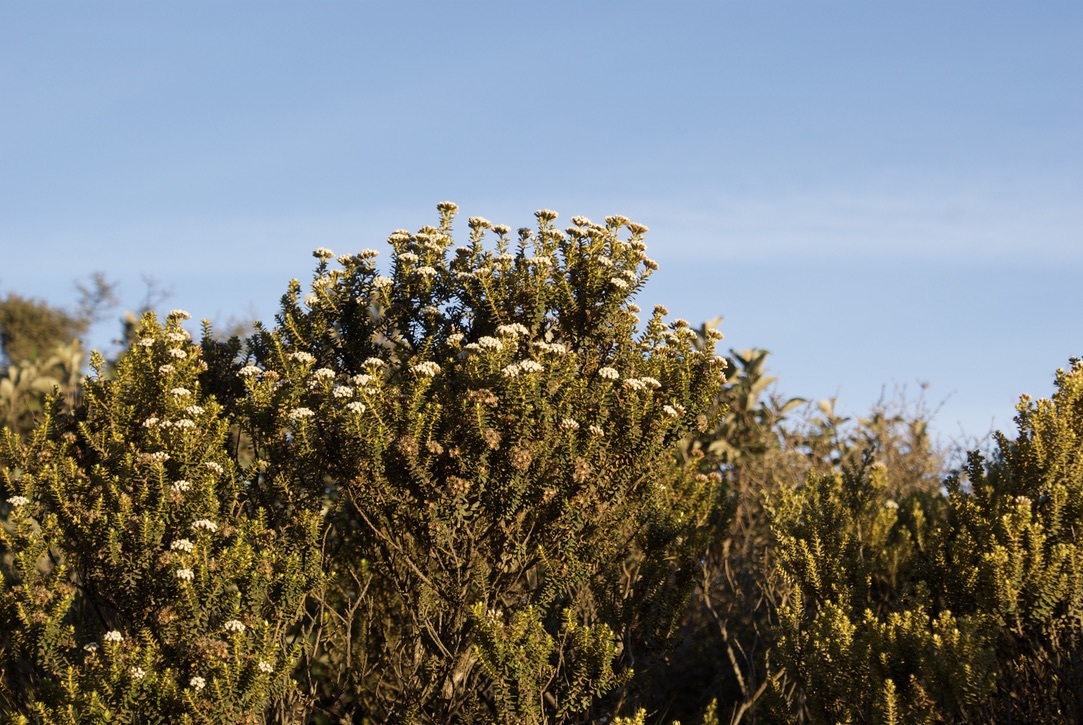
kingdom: Plantae
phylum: Tracheophyta
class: Magnoliopsida
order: Asterales
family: Asteraceae
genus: Ozothamnus
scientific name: Ozothamnus leptophyllus
